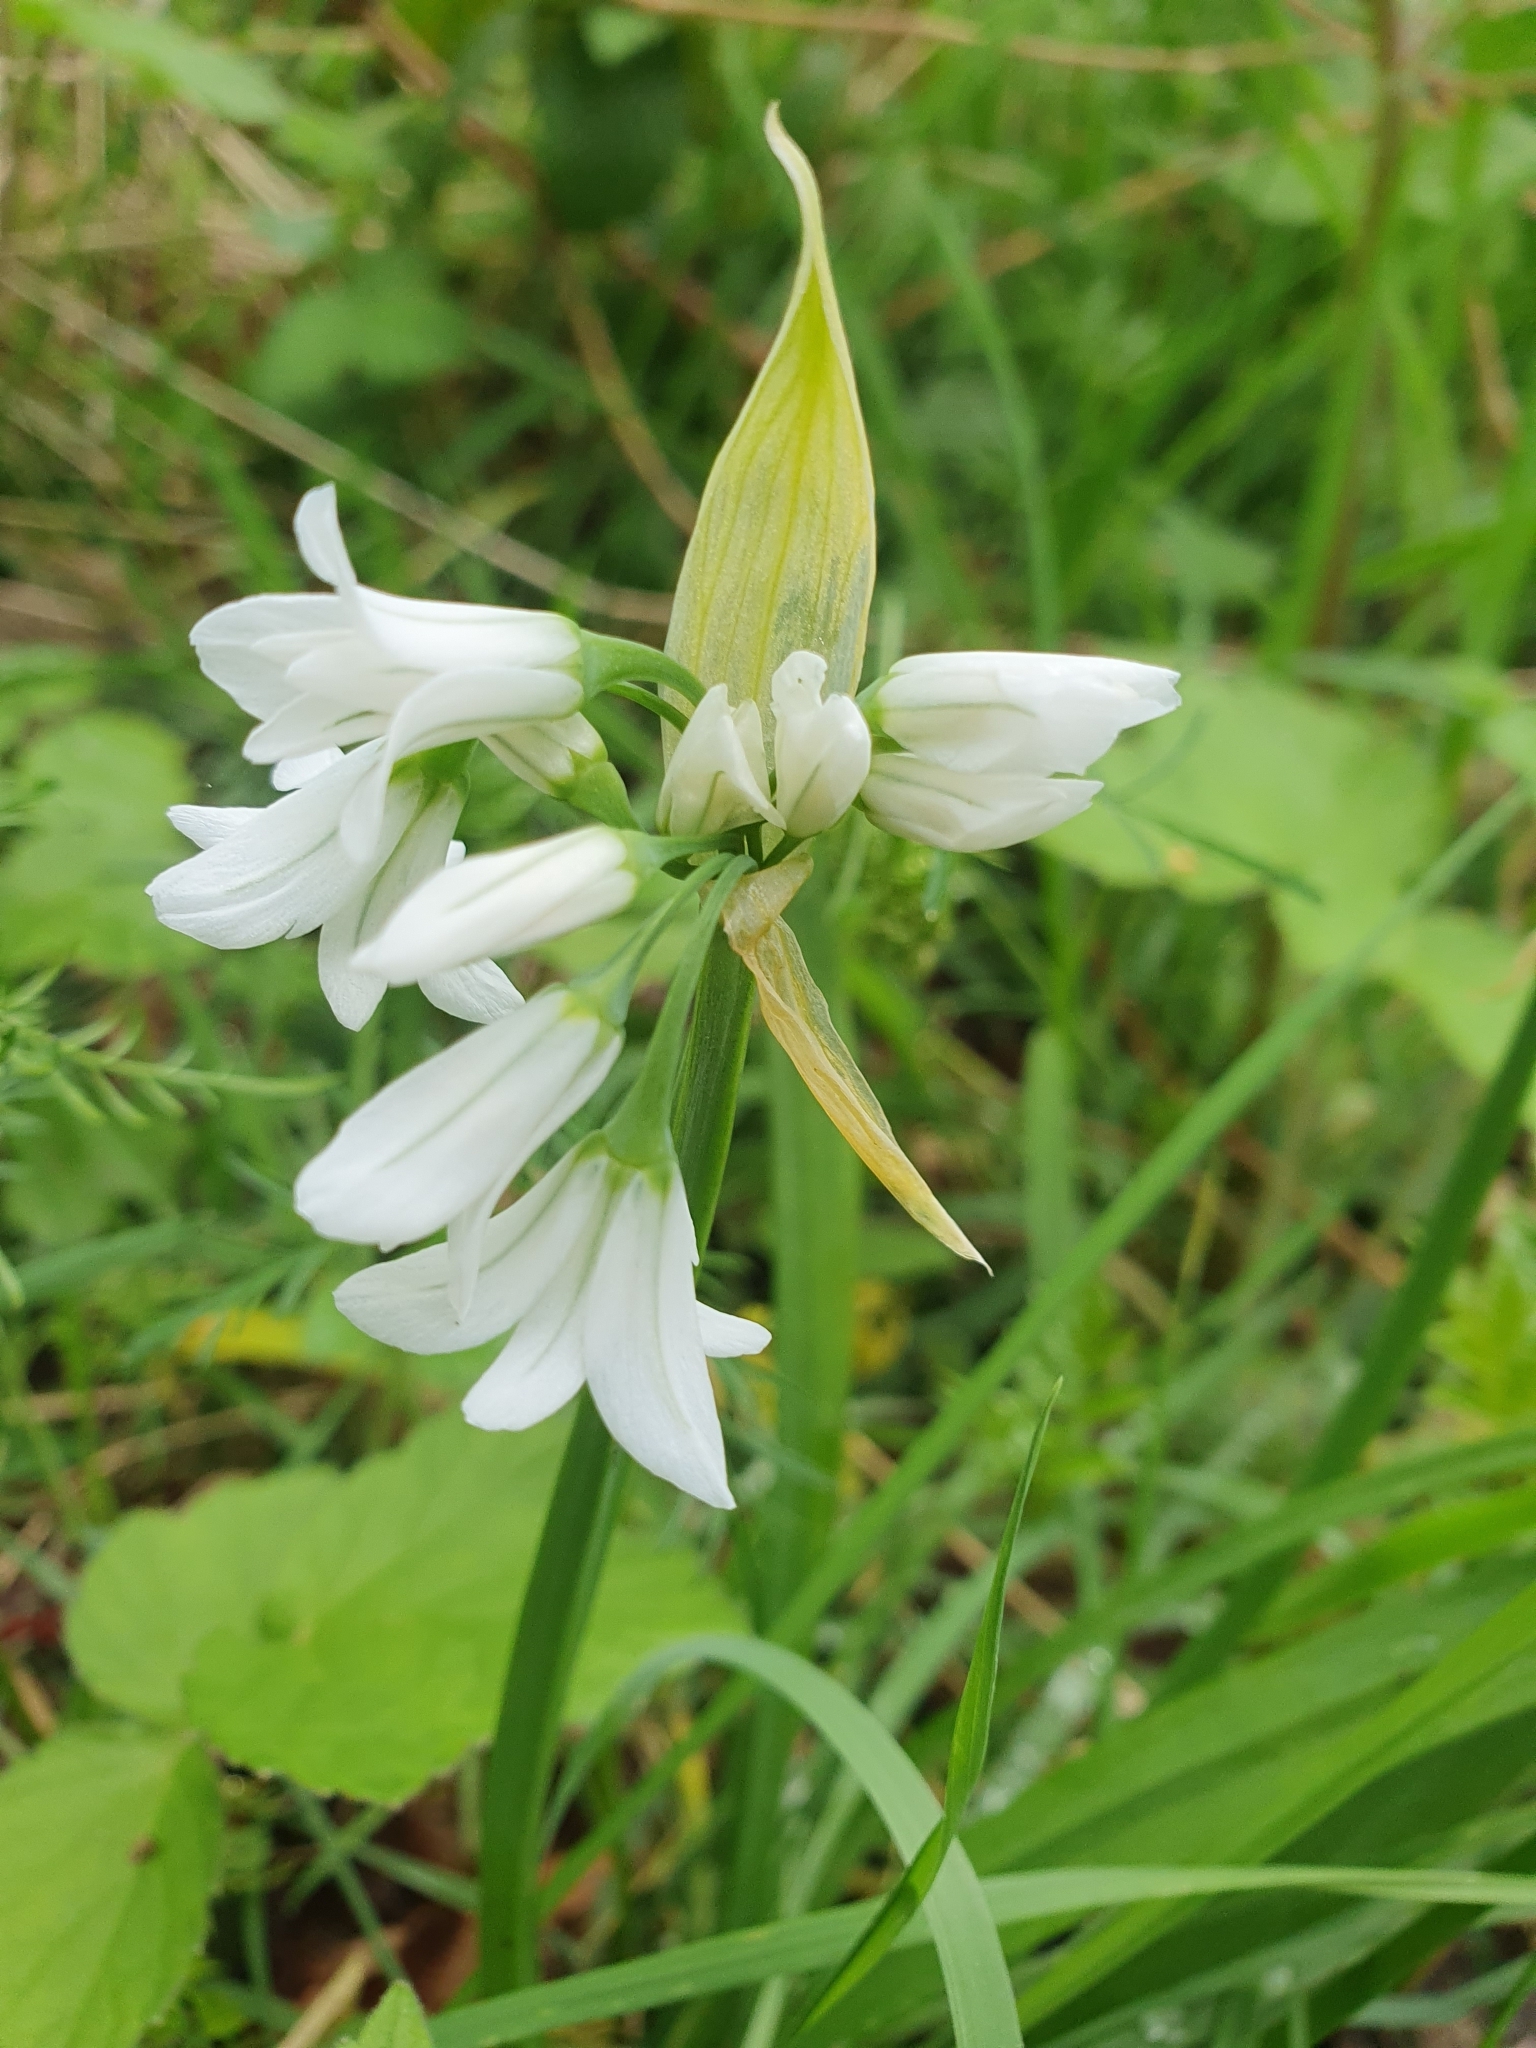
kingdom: Plantae
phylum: Tracheophyta
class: Liliopsida
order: Asparagales
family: Amaryllidaceae
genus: Allium
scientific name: Allium triquetrum
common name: Three-cornered garlic
